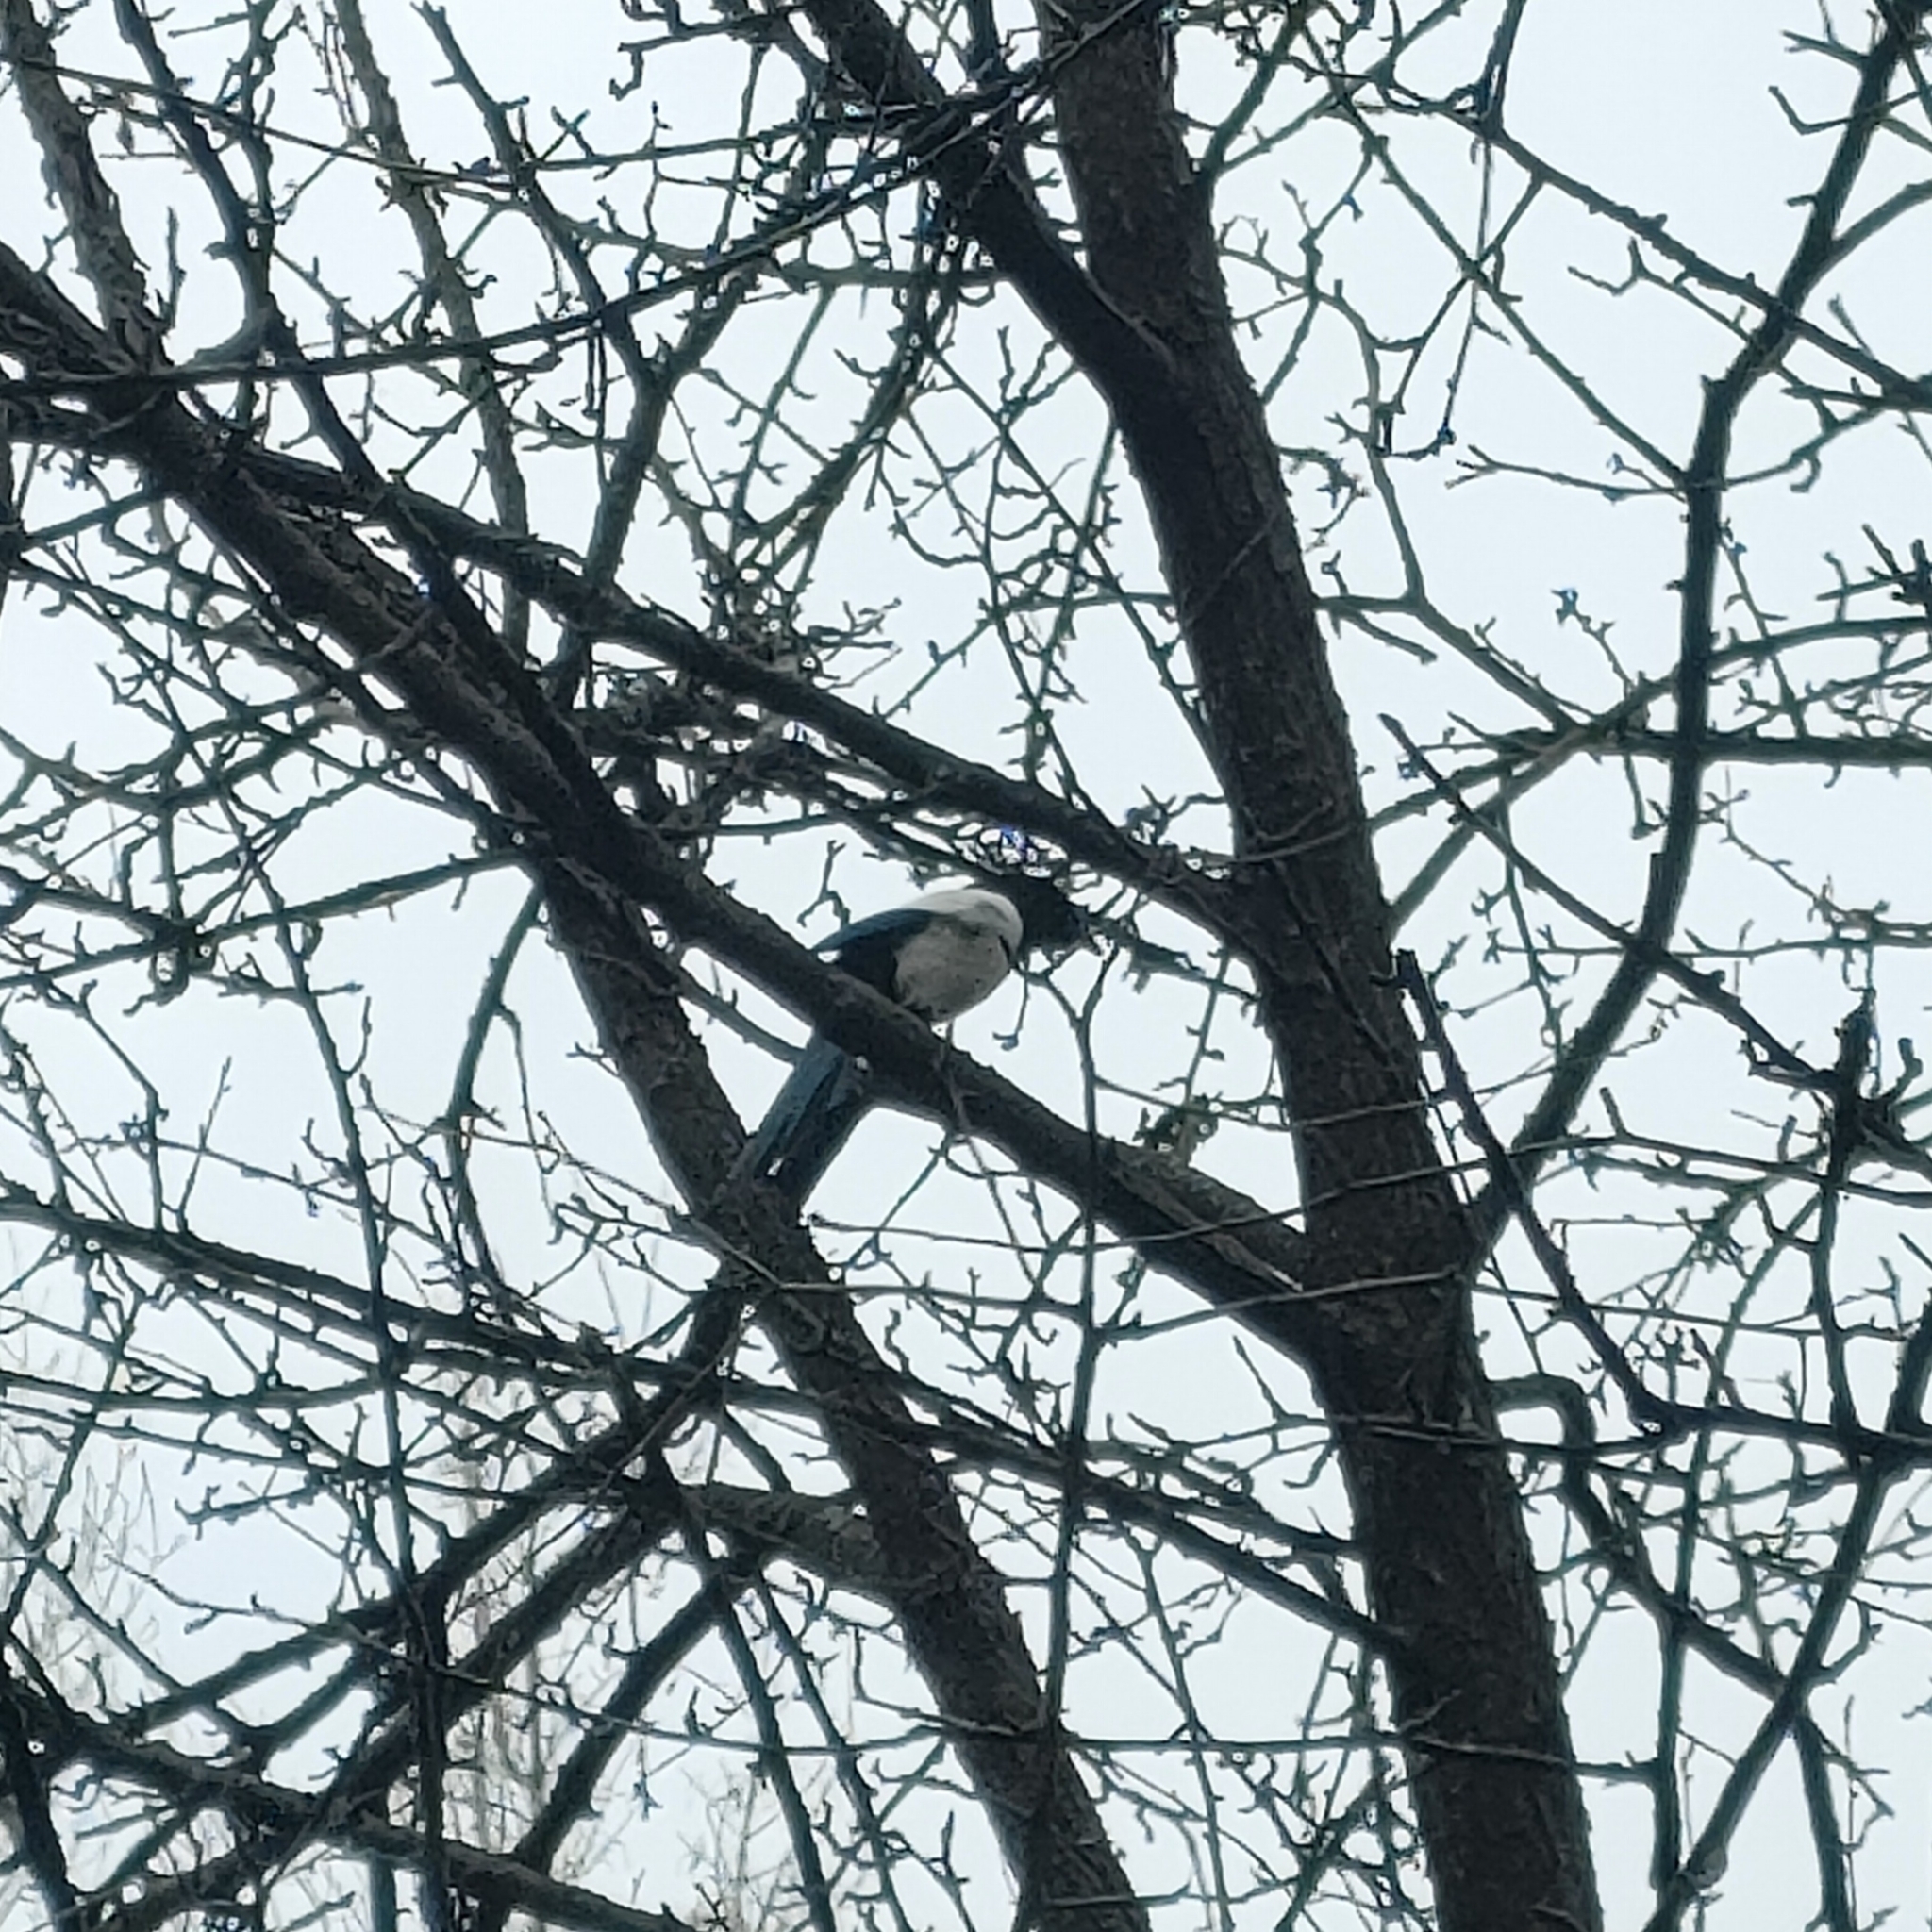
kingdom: Animalia
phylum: Chordata
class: Aves
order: Passeriformes
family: Corvidae
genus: Pica
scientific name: Pica pica
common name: Eurasian magpie
